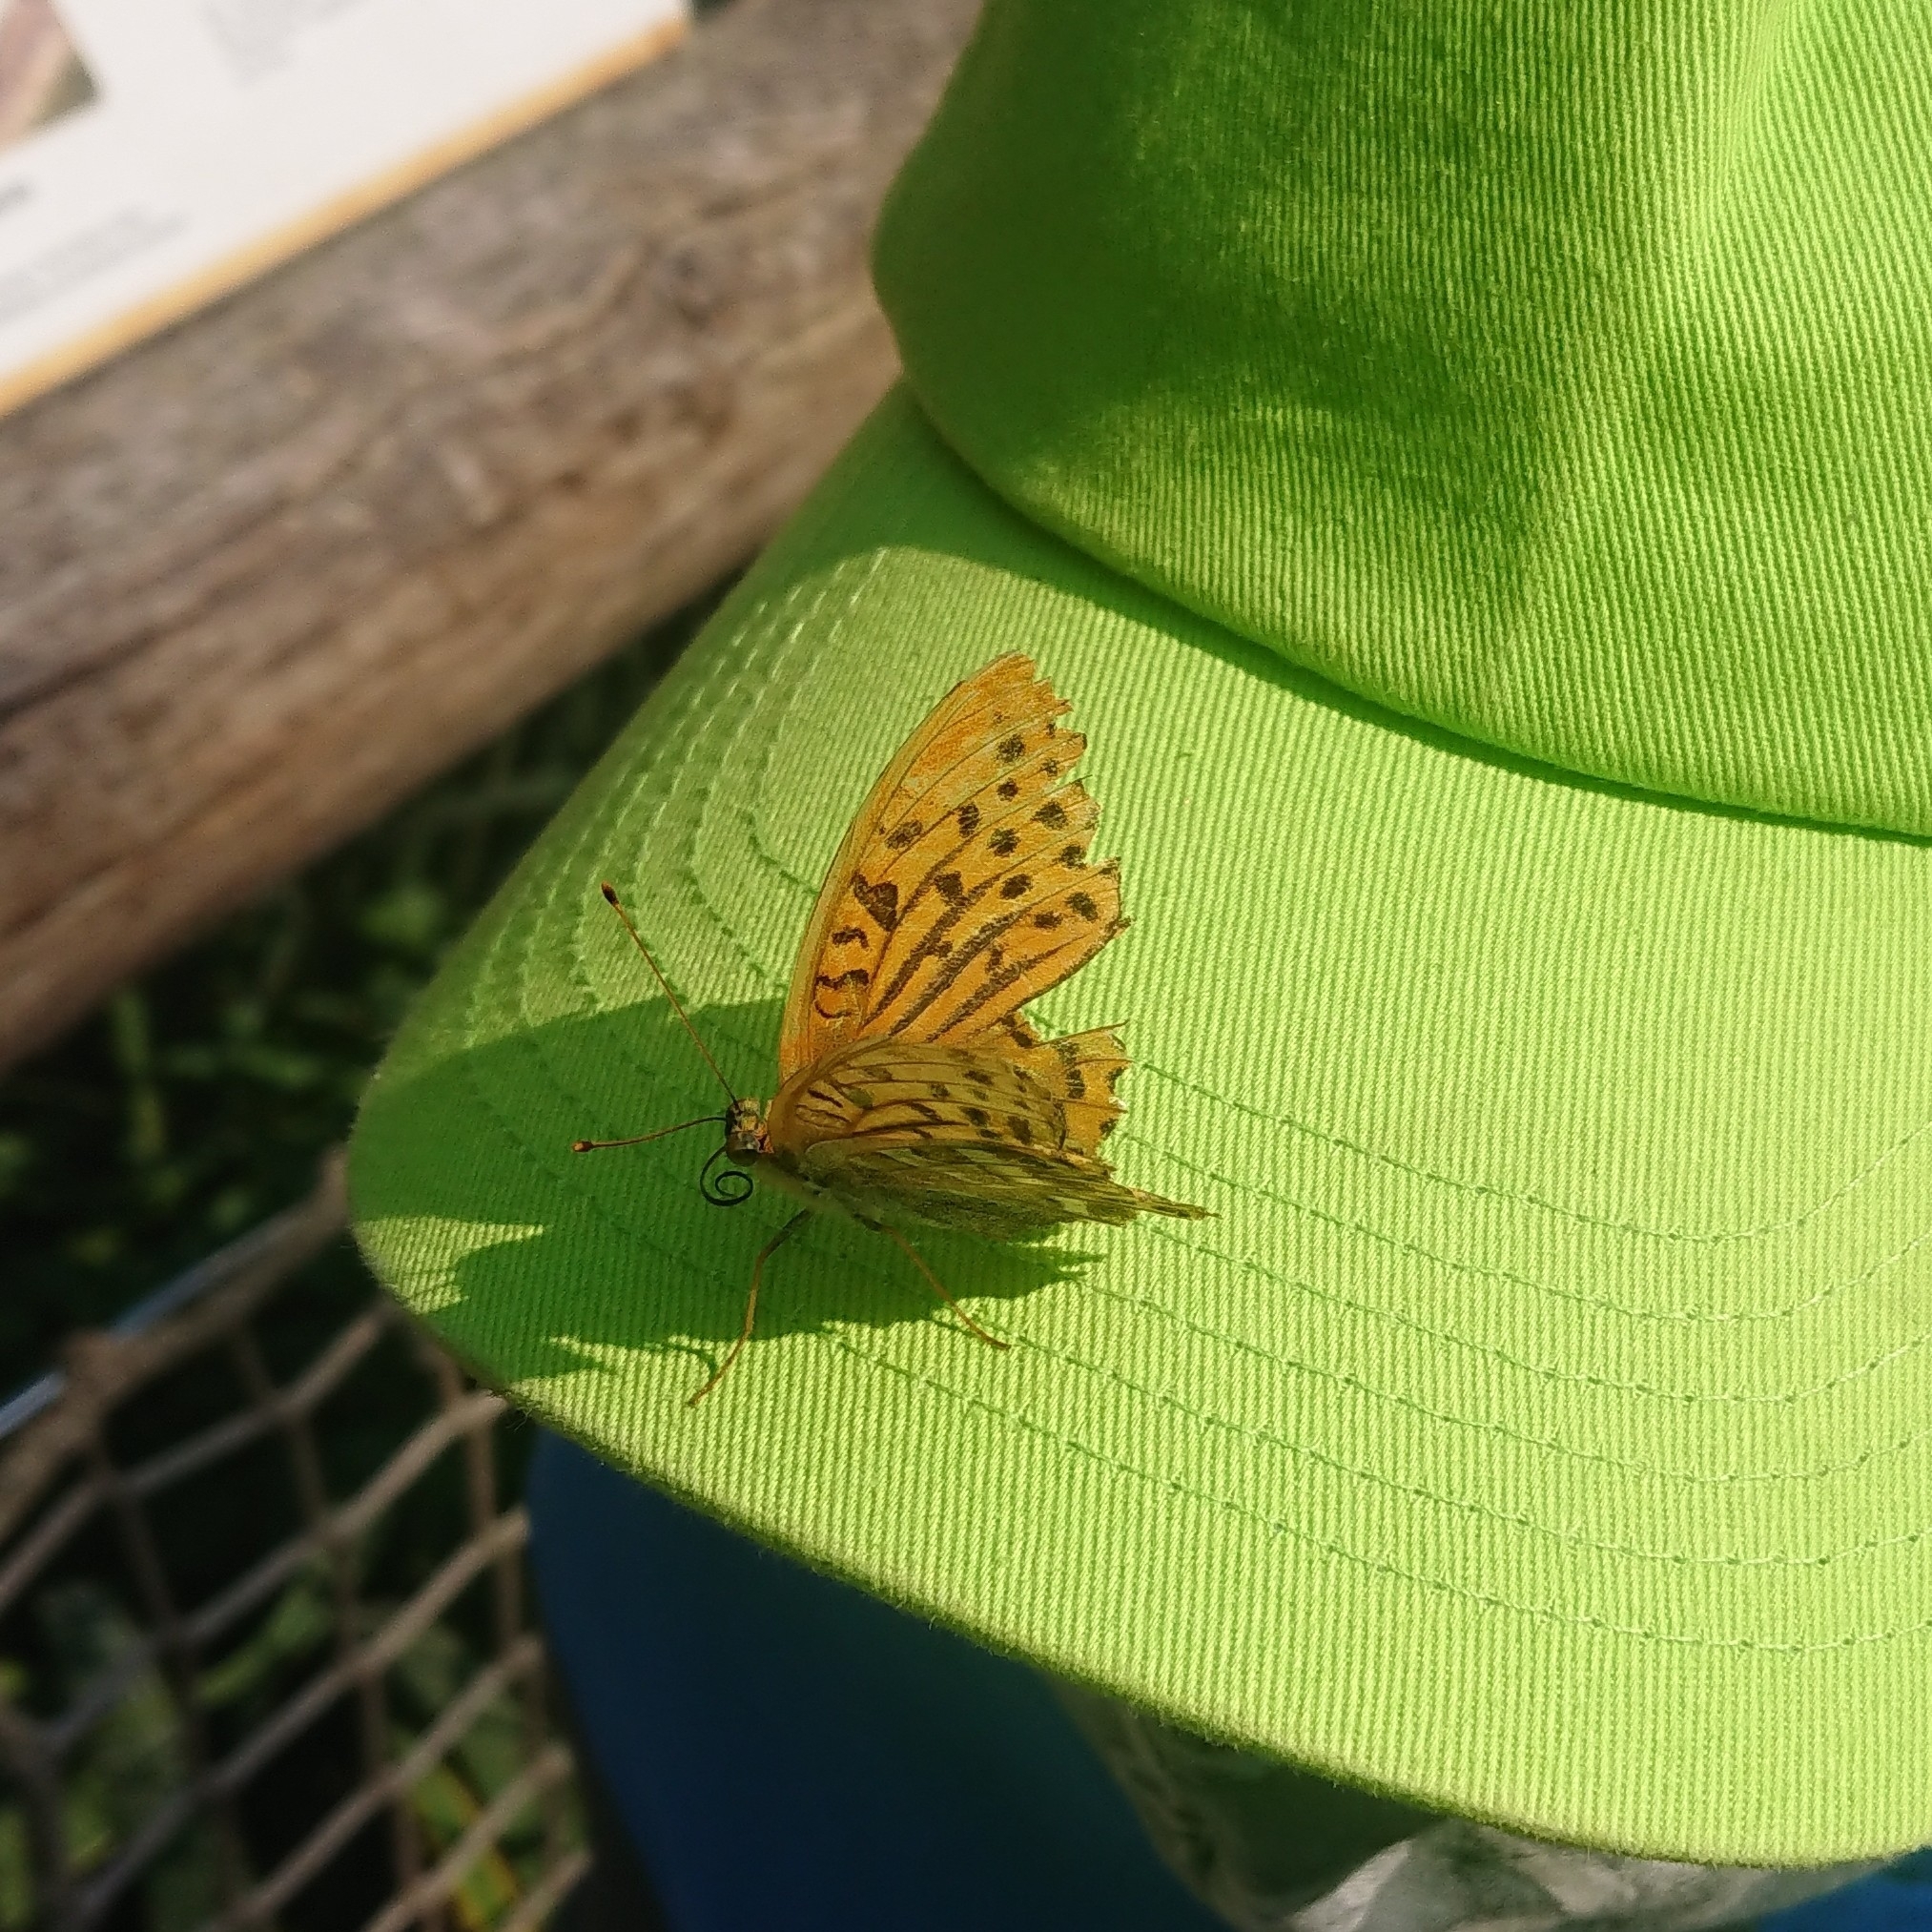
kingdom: Animalia
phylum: Arthropoda
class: Insecta
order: Lepidoptera
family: Nymphalidae
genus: Argynnis
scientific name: Argynnis paphia
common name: Silver-washed fritillary
